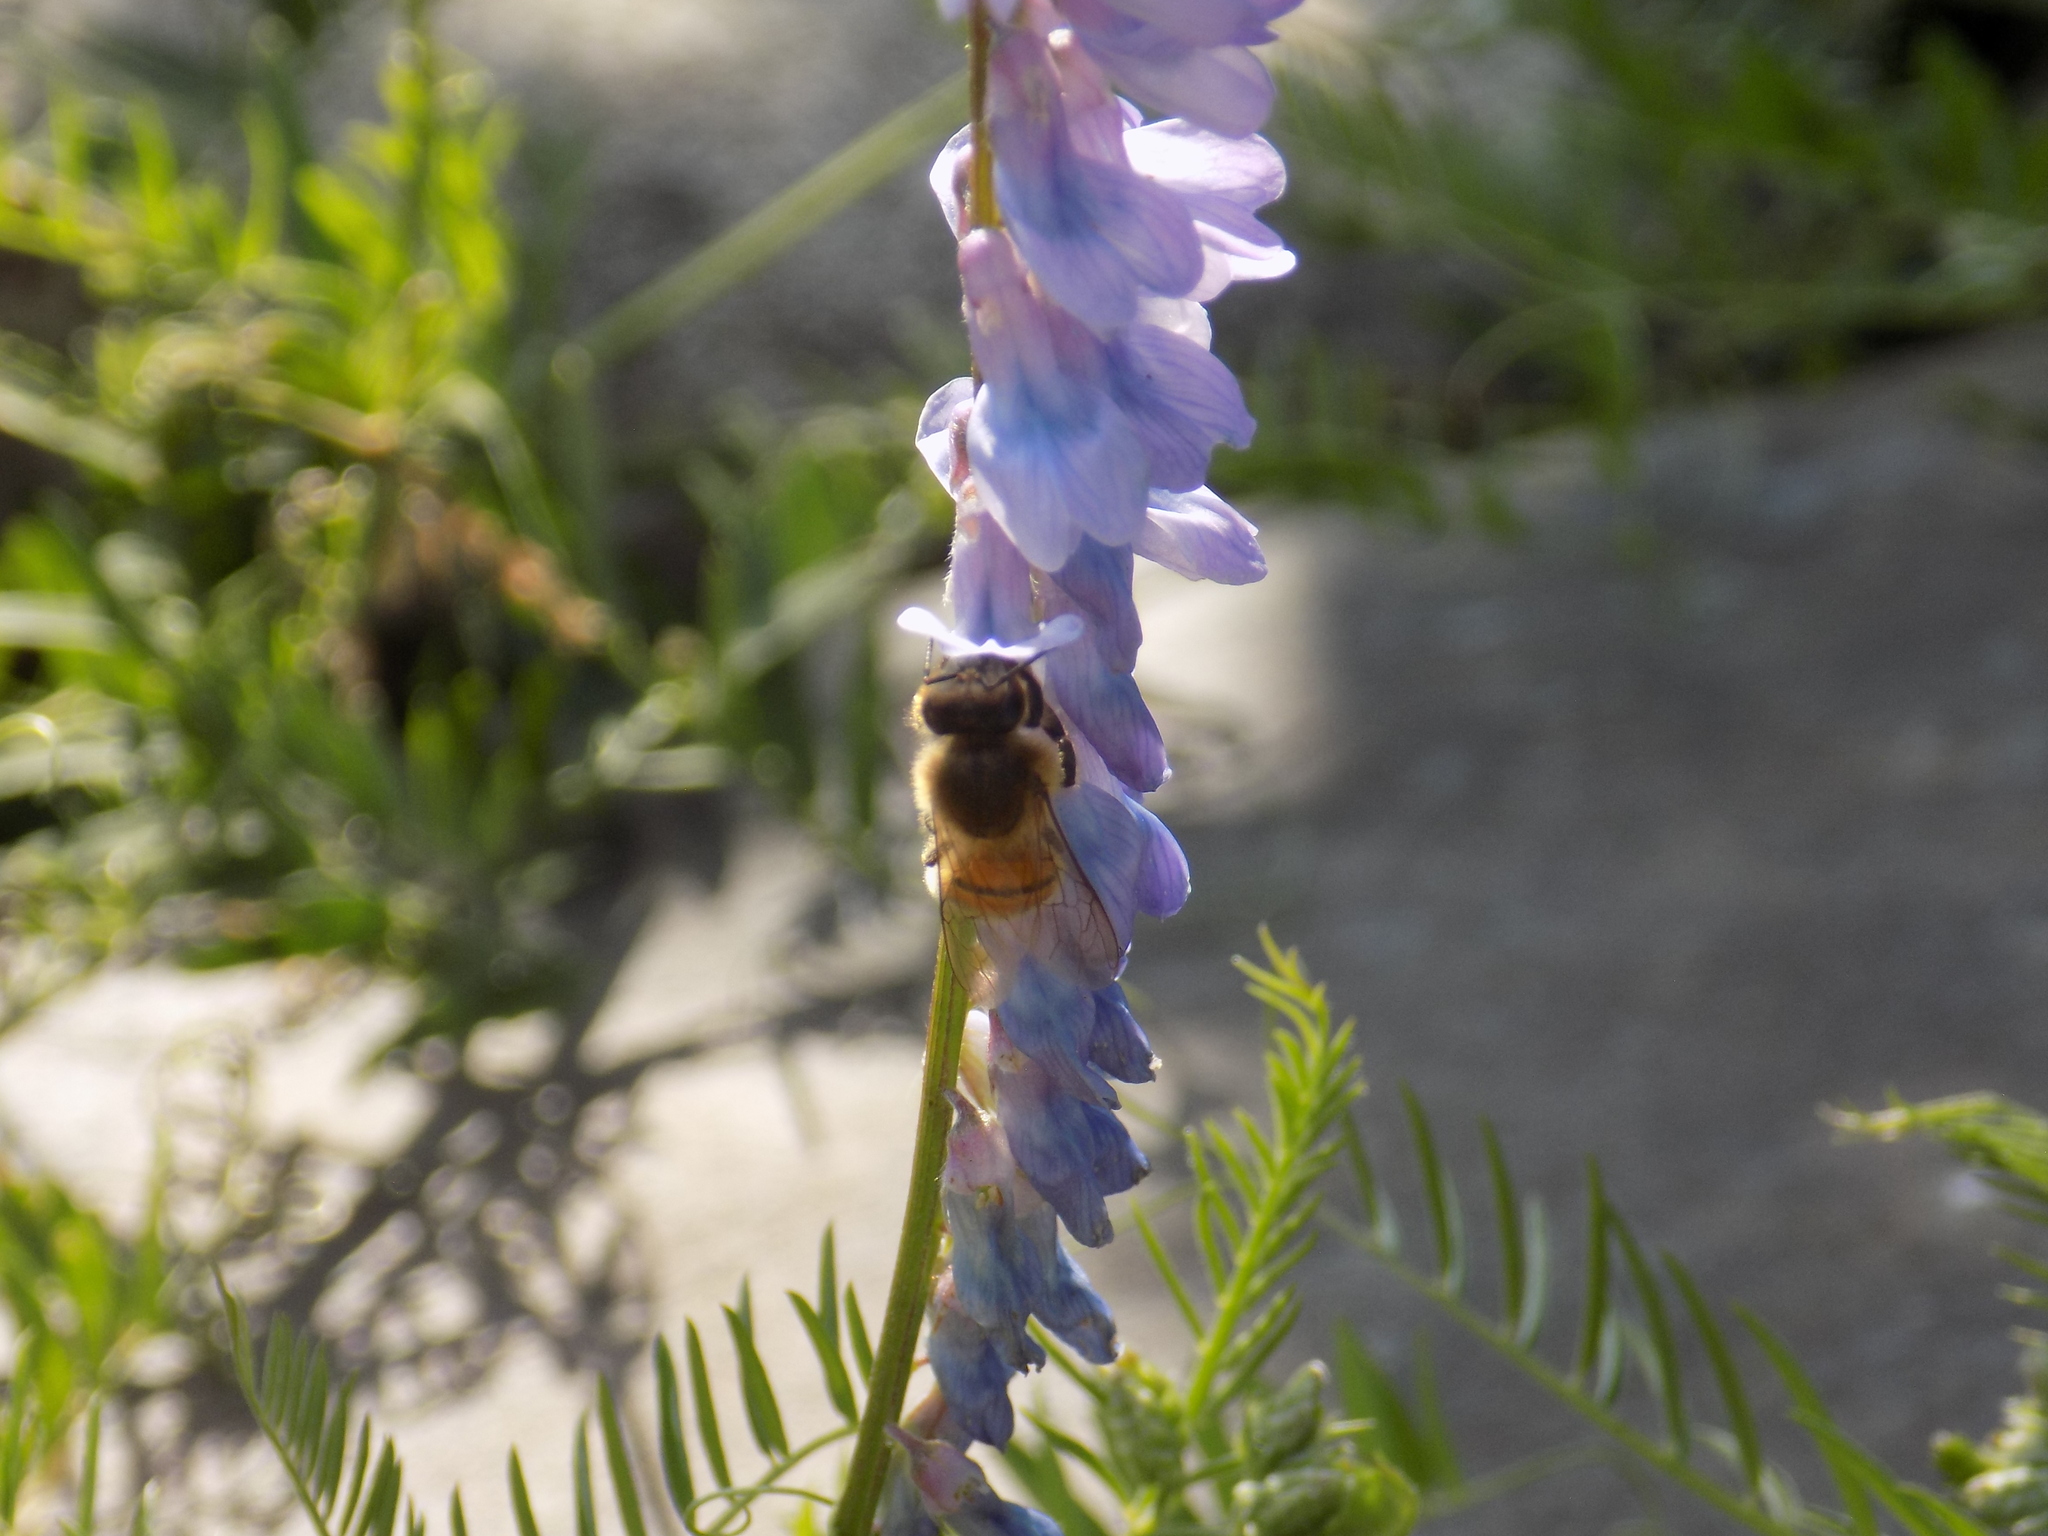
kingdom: Animalia
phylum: Arthropoda
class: Insecta
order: Hymenoptera
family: Apidae
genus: Apis
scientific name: Apis mellifera
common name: Honey bee
